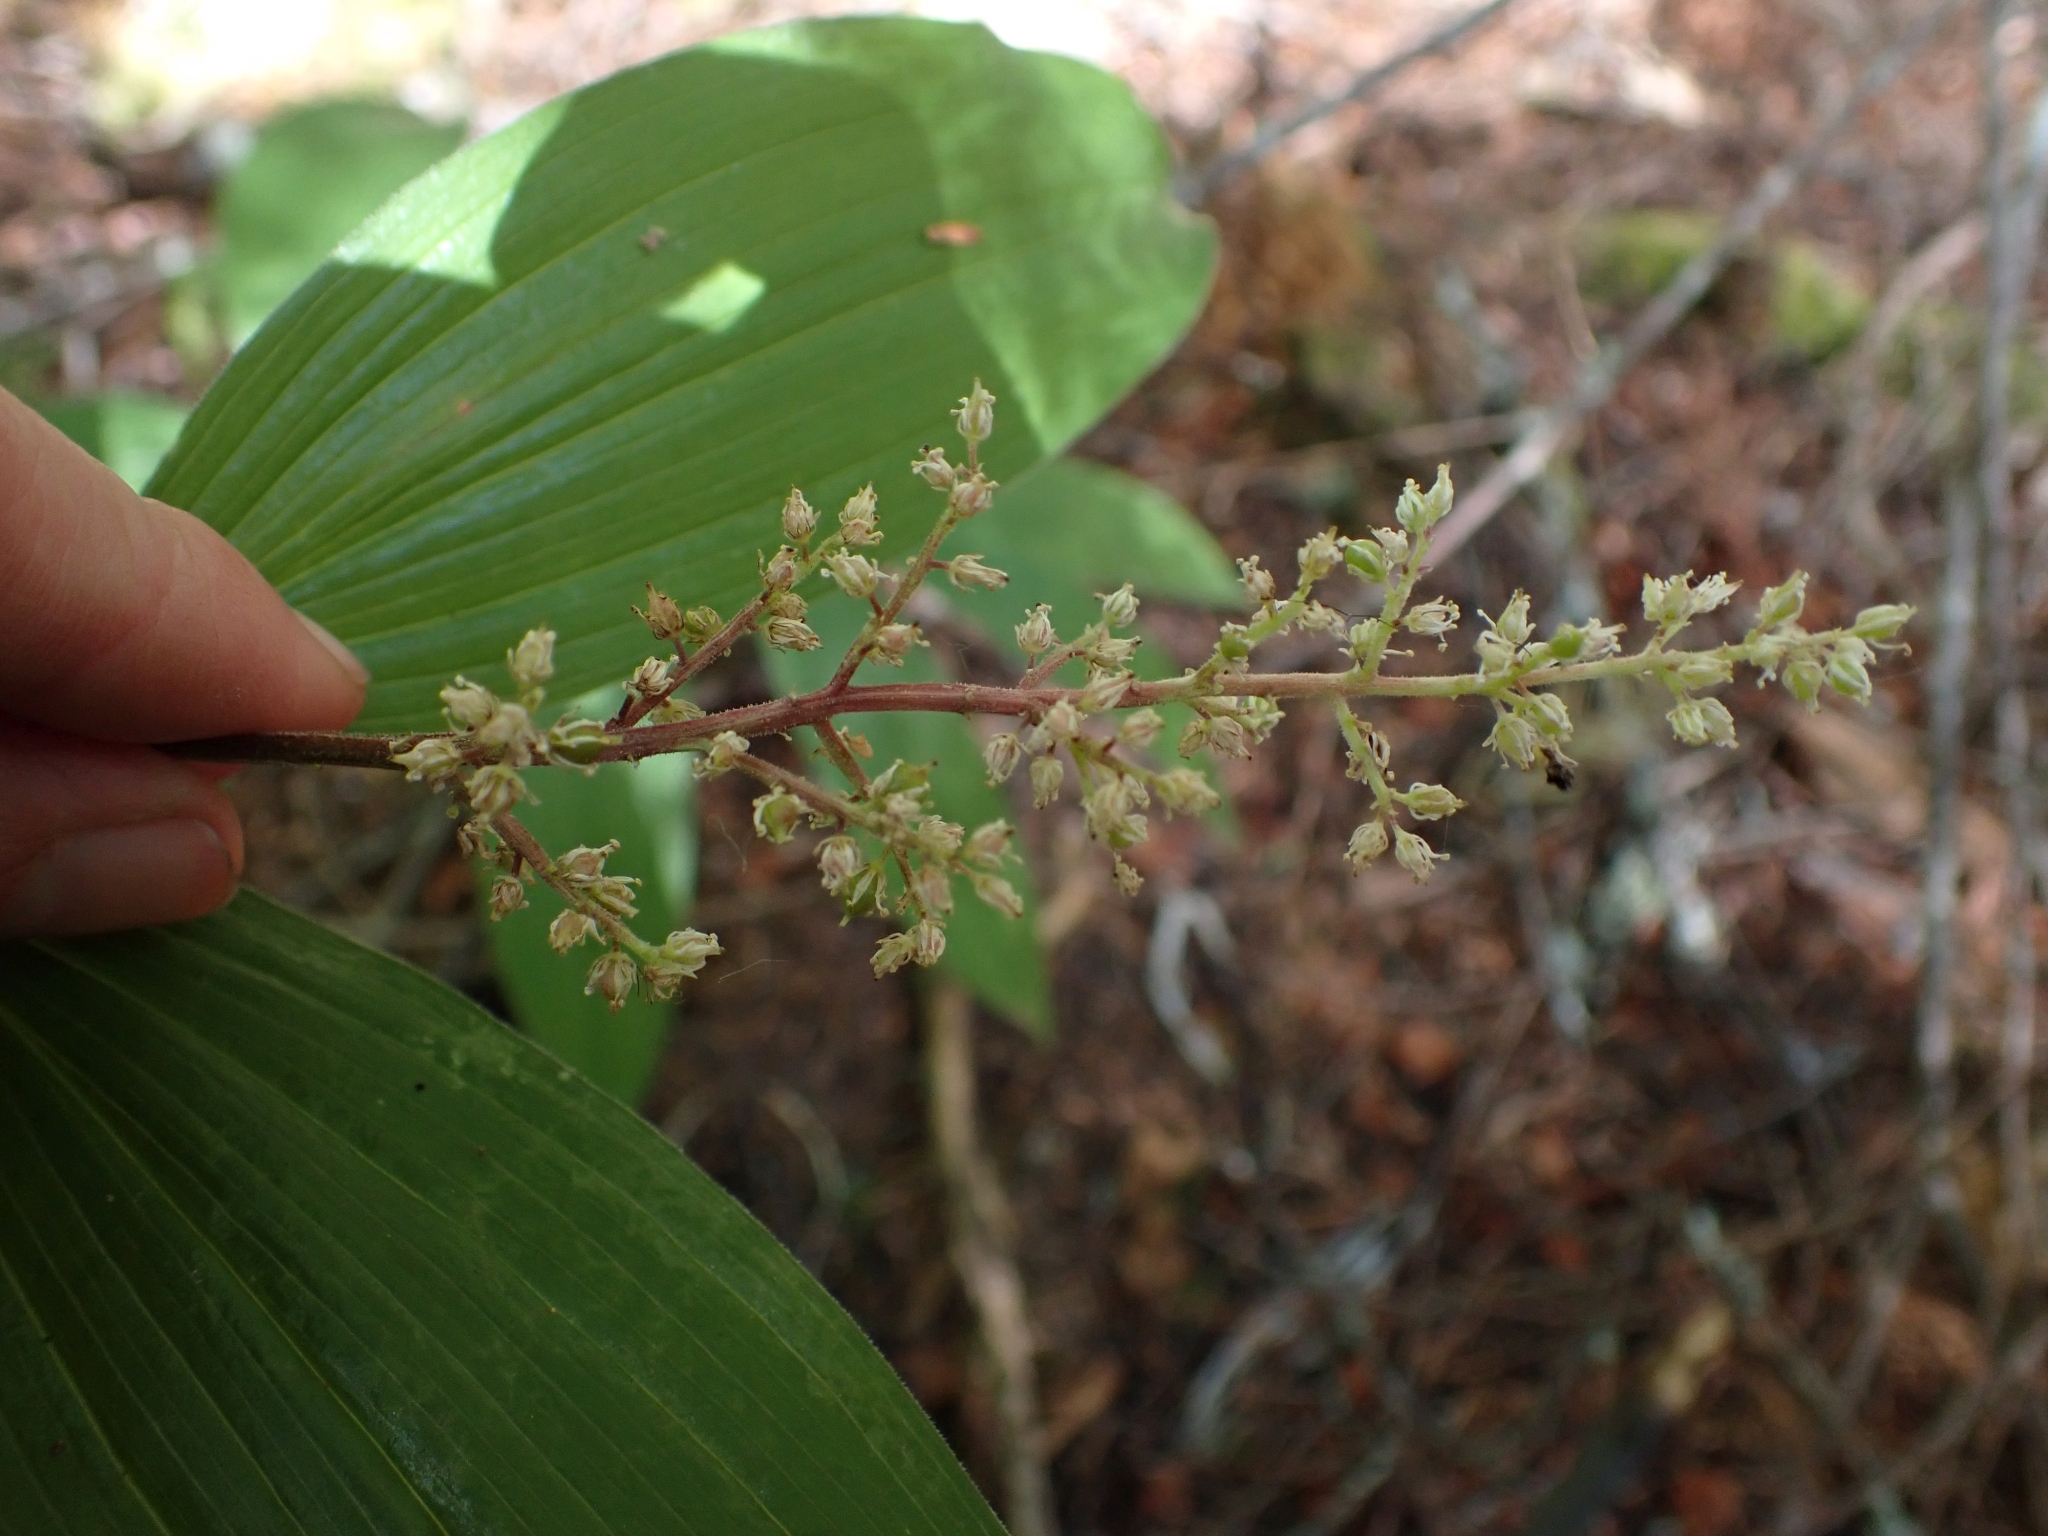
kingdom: Plantae
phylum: Tracheophyta
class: Liliopsida
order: Asparagales
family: Asparagaceae
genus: Maianthemum
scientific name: Maianthemum racemosum
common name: False spikenard
